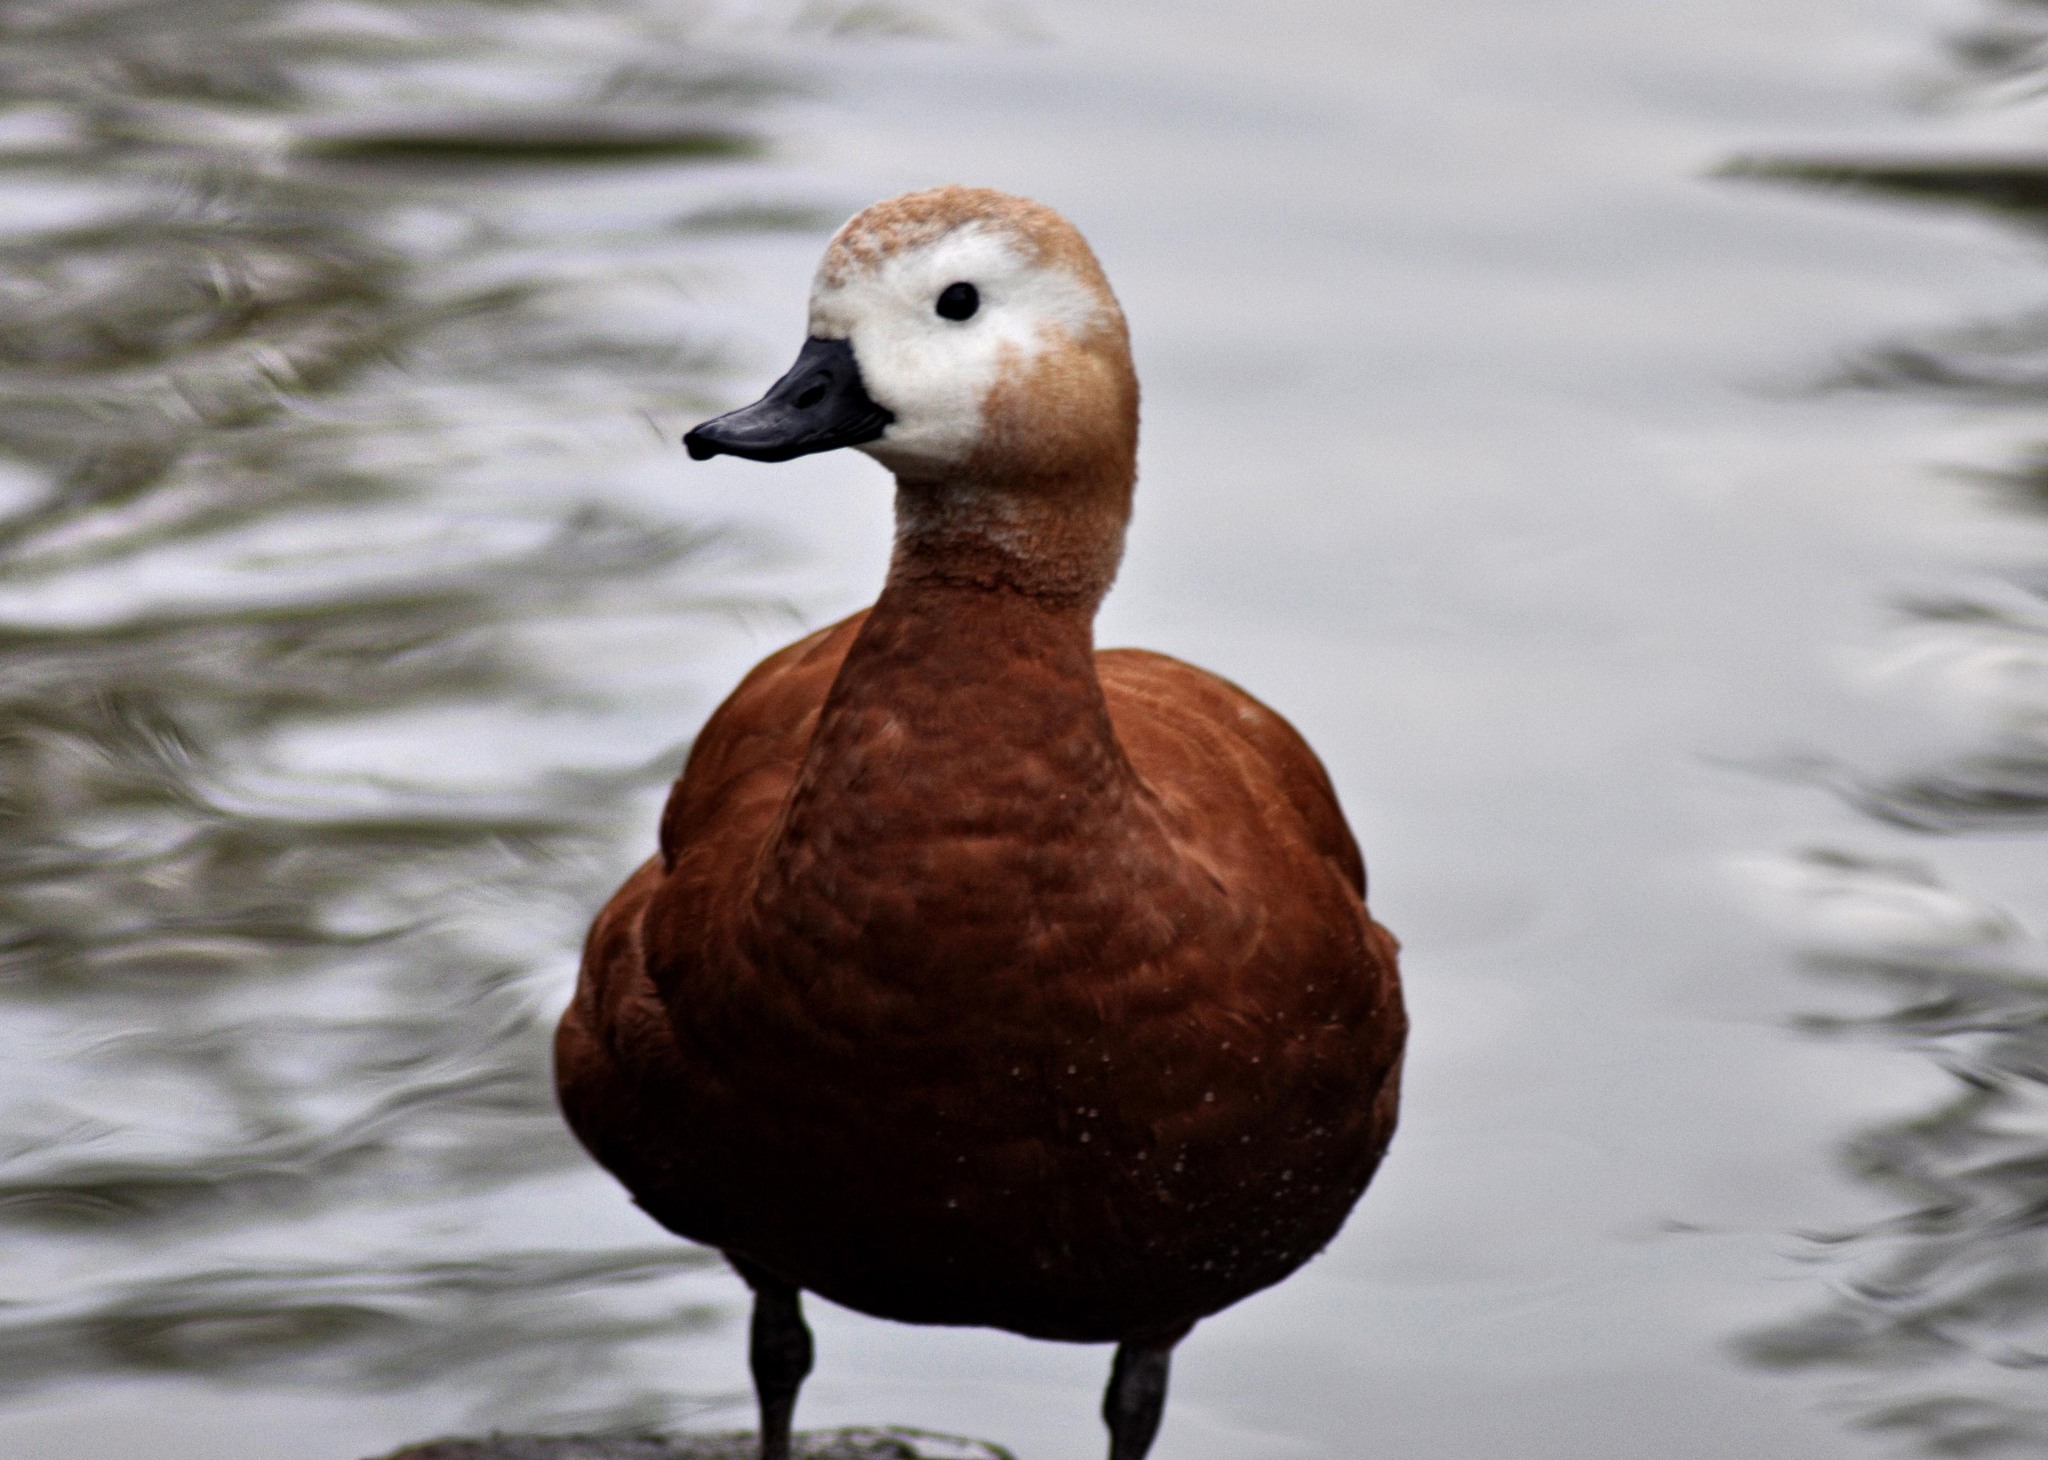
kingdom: Animalia
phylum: Chordata
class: Aves
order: Anseriformes
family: Anatidae
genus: Tadorna
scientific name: Tadorna ferruginea
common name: Ruddy shelduck
